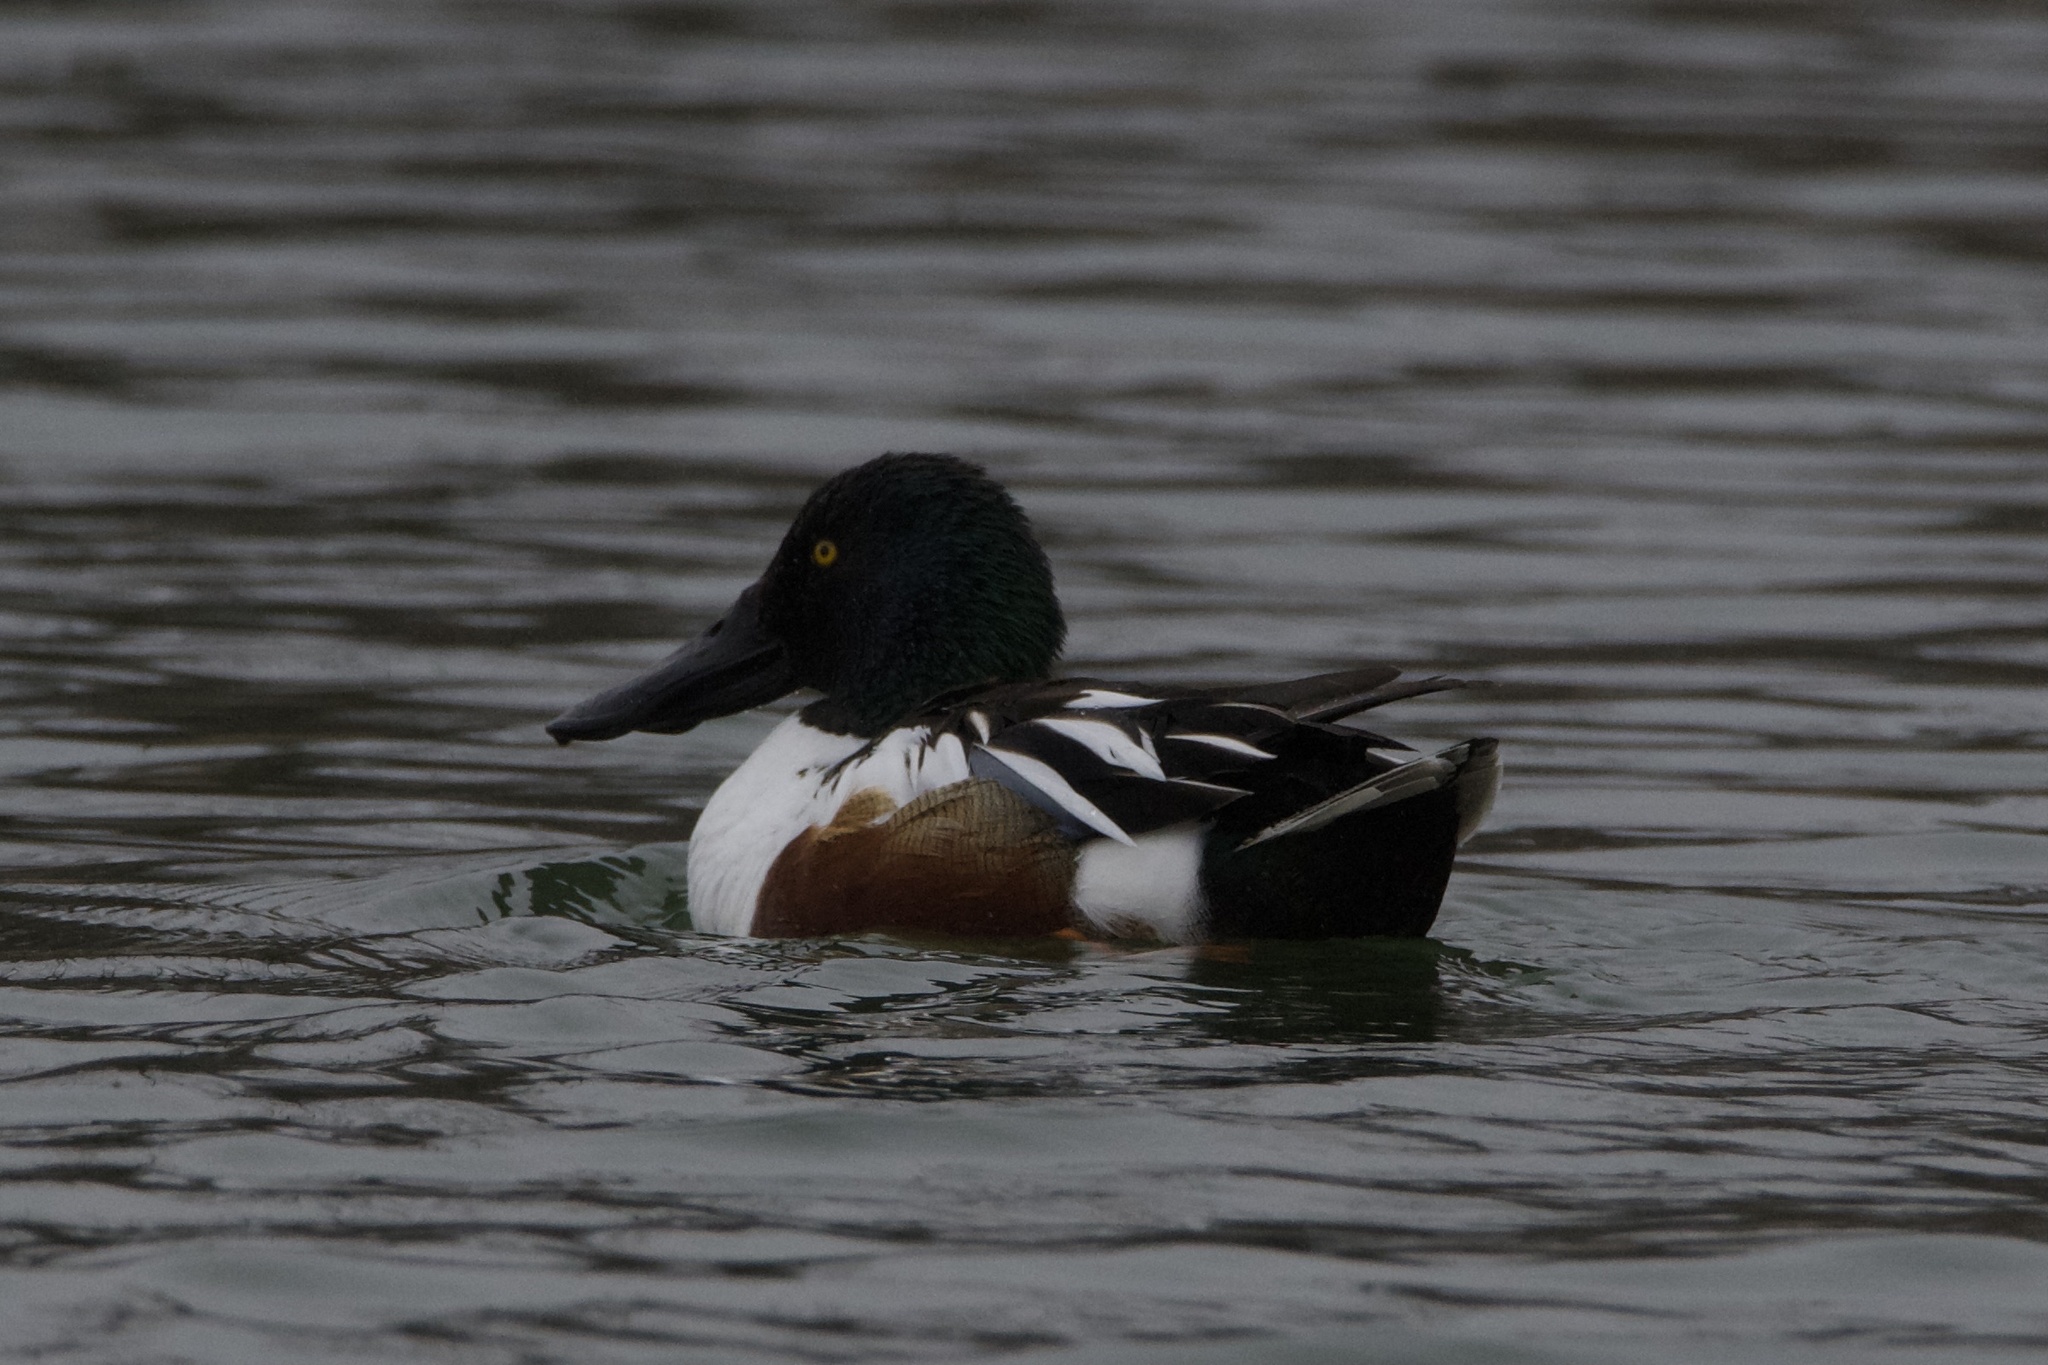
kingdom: Animalia
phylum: Chordata
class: Aves
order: Anseriformes
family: Anatidae
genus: Spatula
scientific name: Spatula clypeata
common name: Northern shoveler
